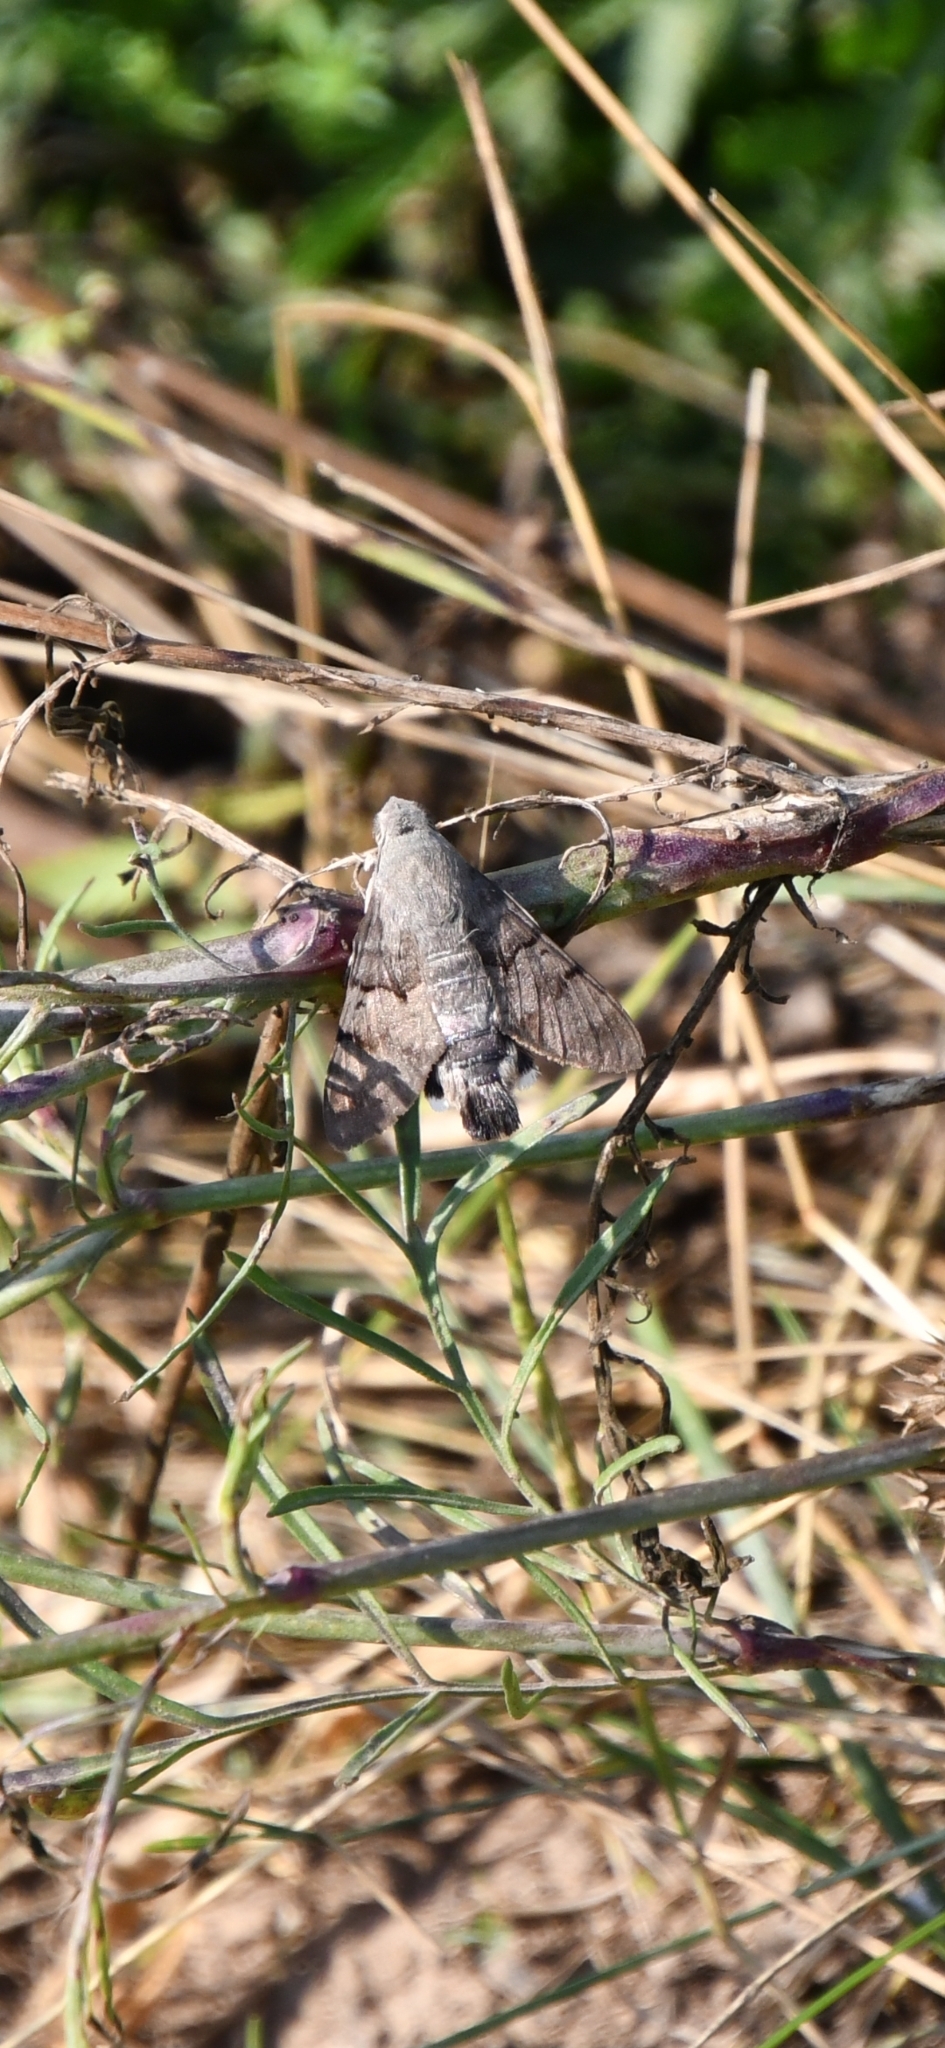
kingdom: Animalia
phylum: Arthropoda
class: Insecta
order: Lepidoptera
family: Sphingidae
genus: Macroglossum
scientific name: Macroglossum stellatarum
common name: Humming-bird hawk-moth
